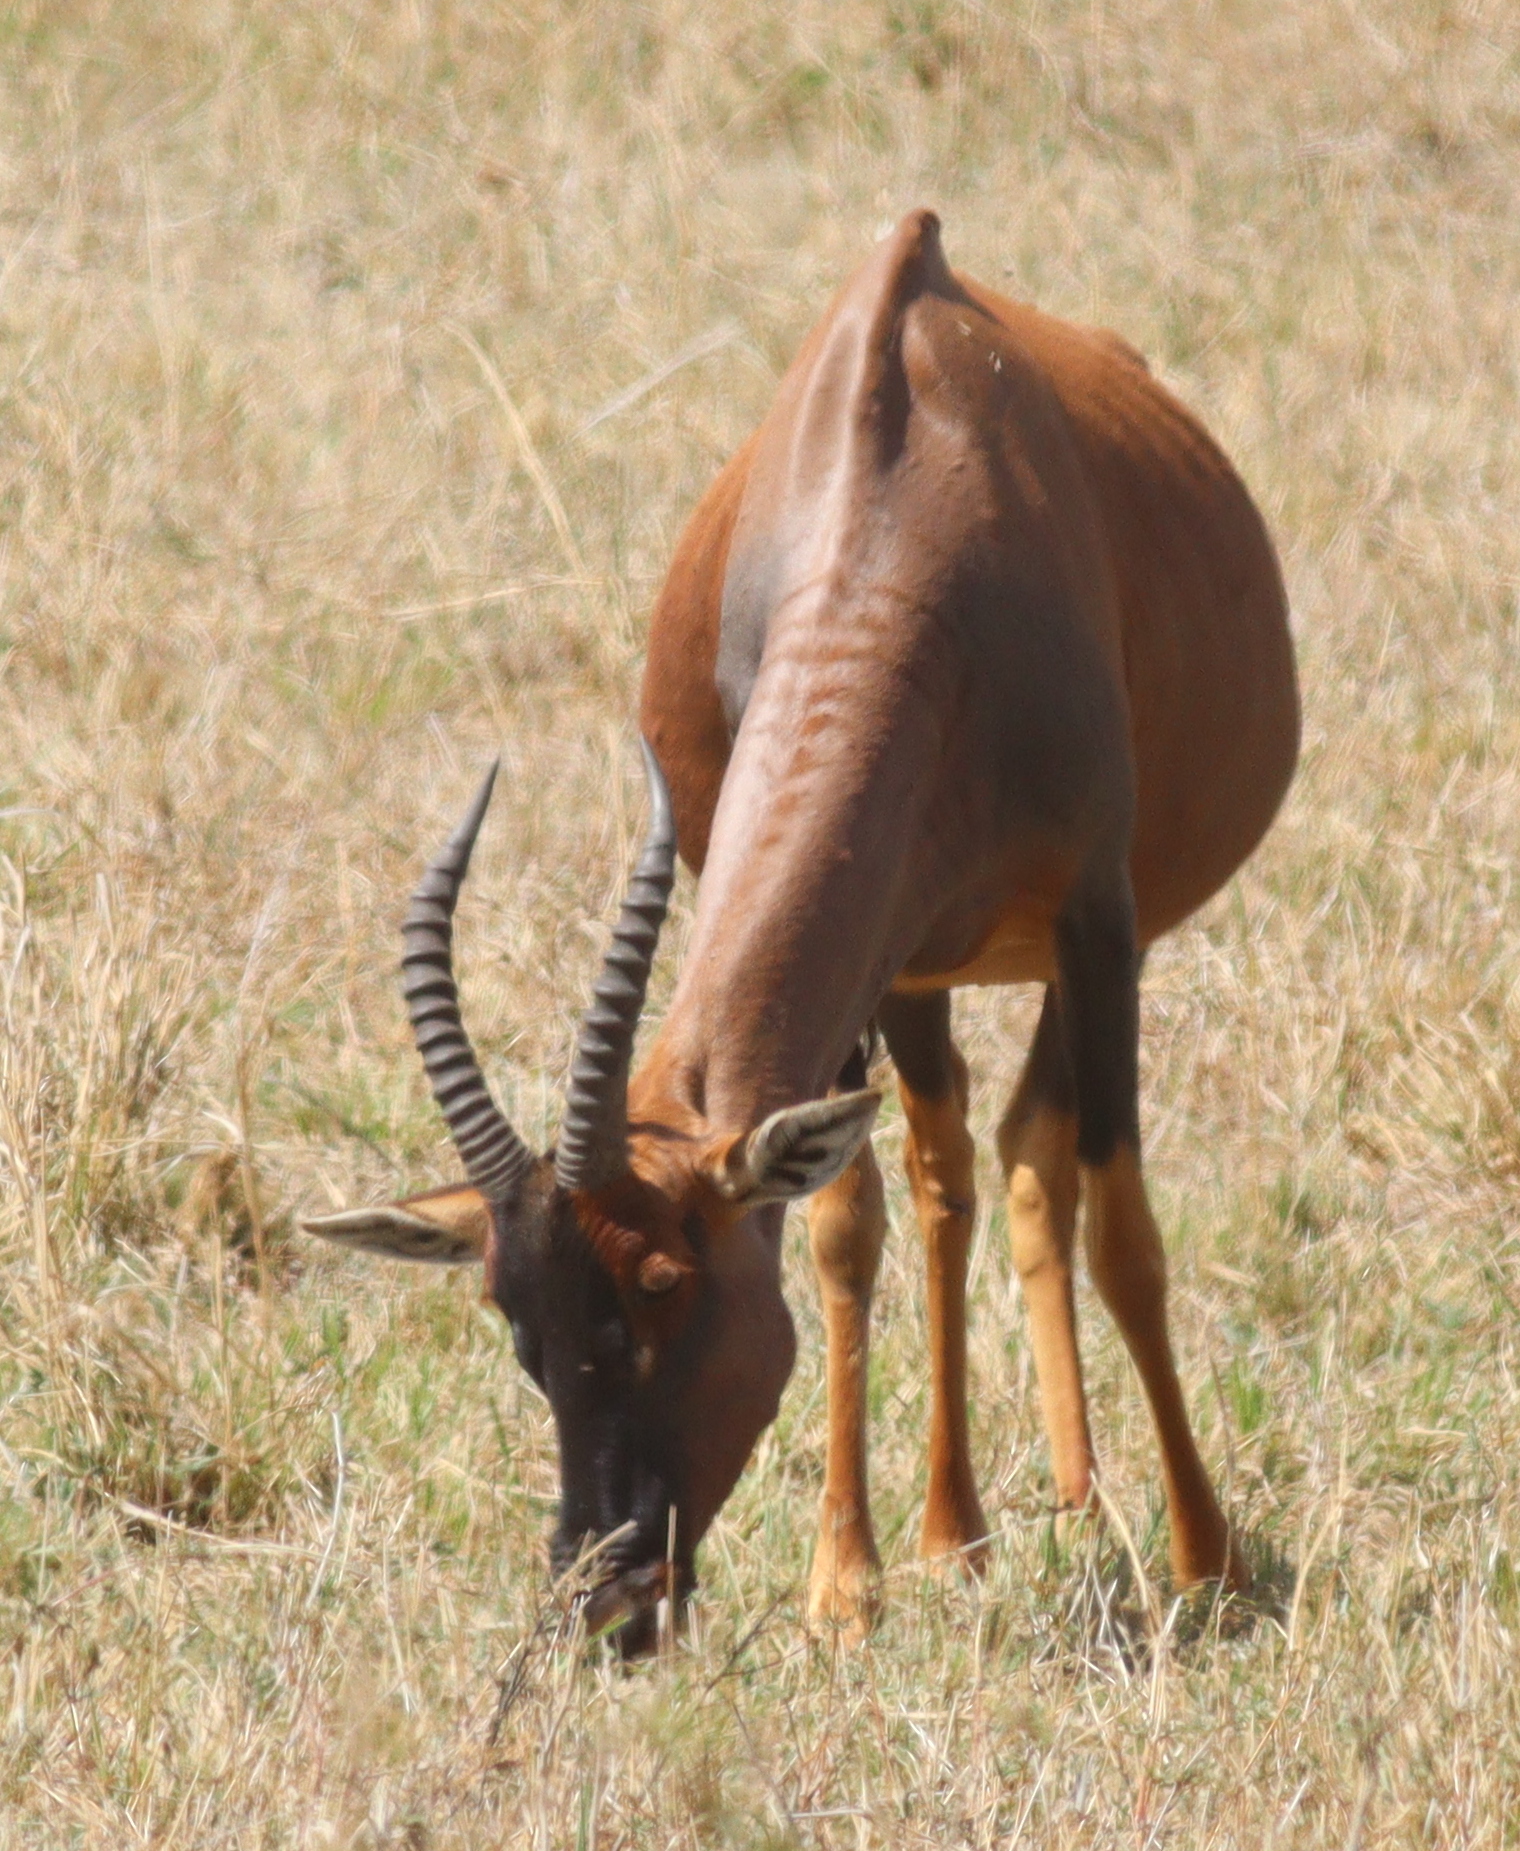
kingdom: Animalia
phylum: Chordata
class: Mammalia
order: Artiodactyla
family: Bovidae
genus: Damaliscus
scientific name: Damaliscus korrigum
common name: Topi
